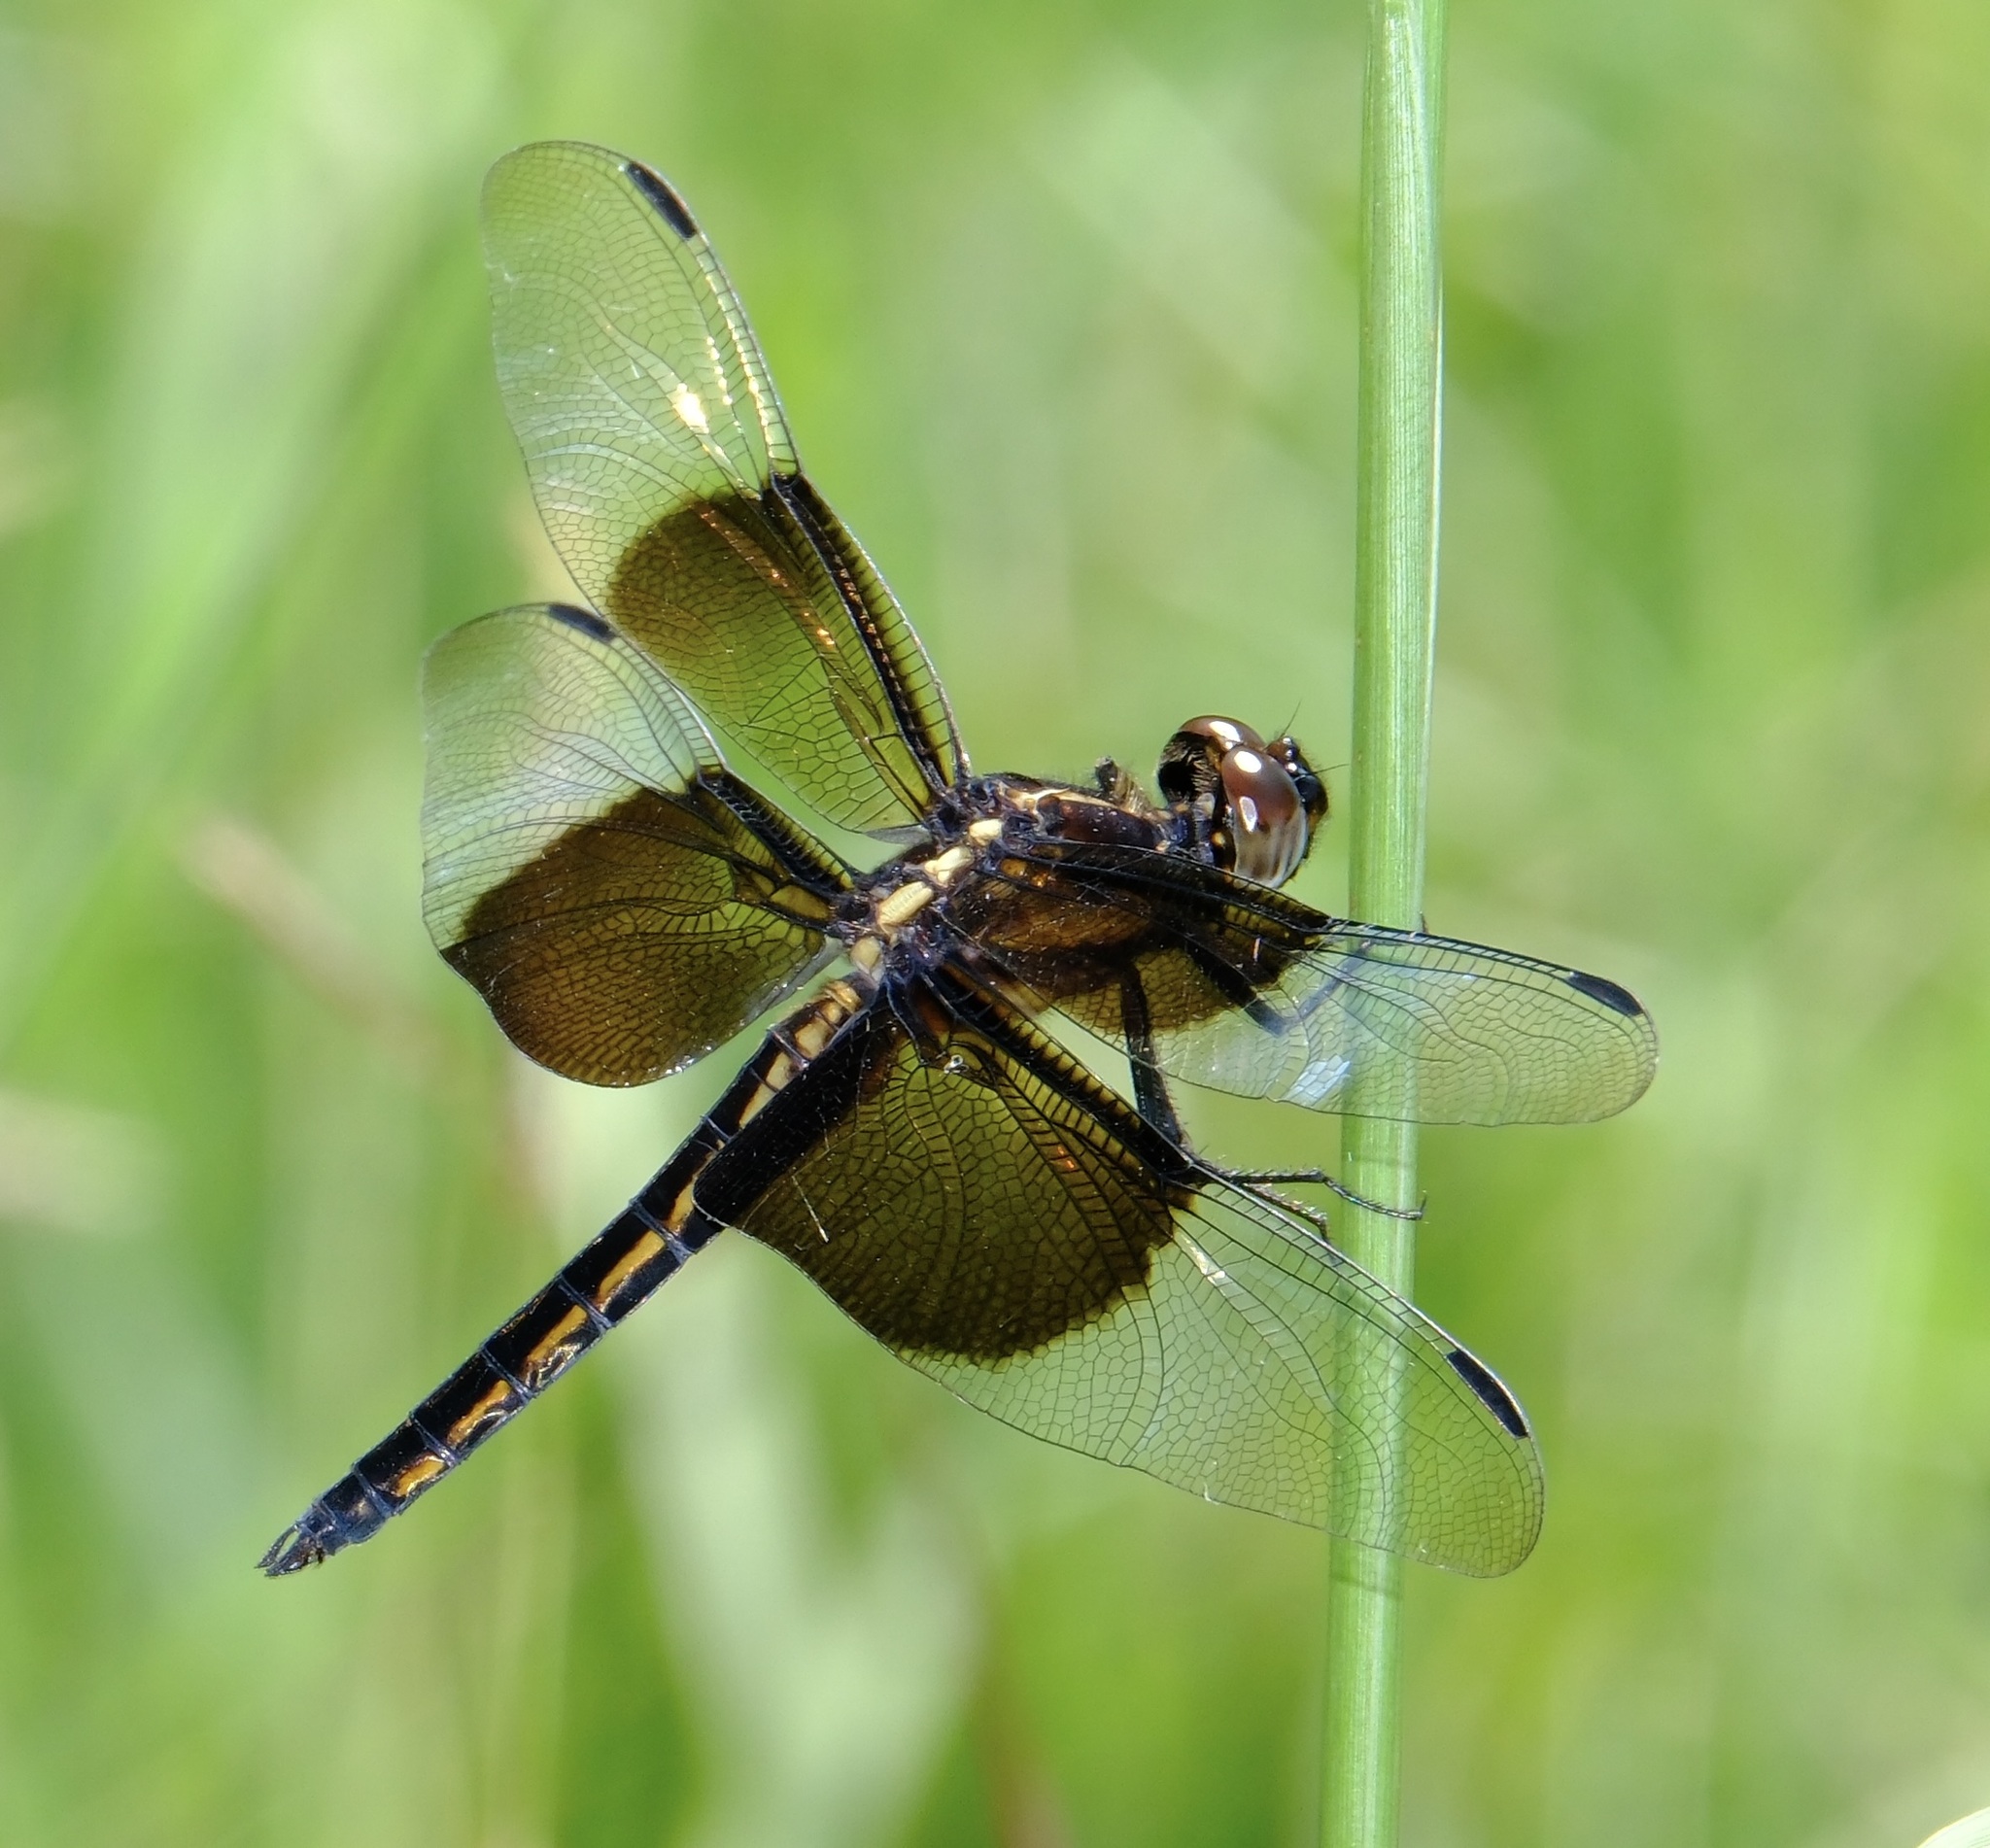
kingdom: Animalia
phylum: Arthropoda
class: Insecta
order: Odonata
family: Libellulidae
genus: Libellula
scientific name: Libellula luctuosa
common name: Widow skimmer
